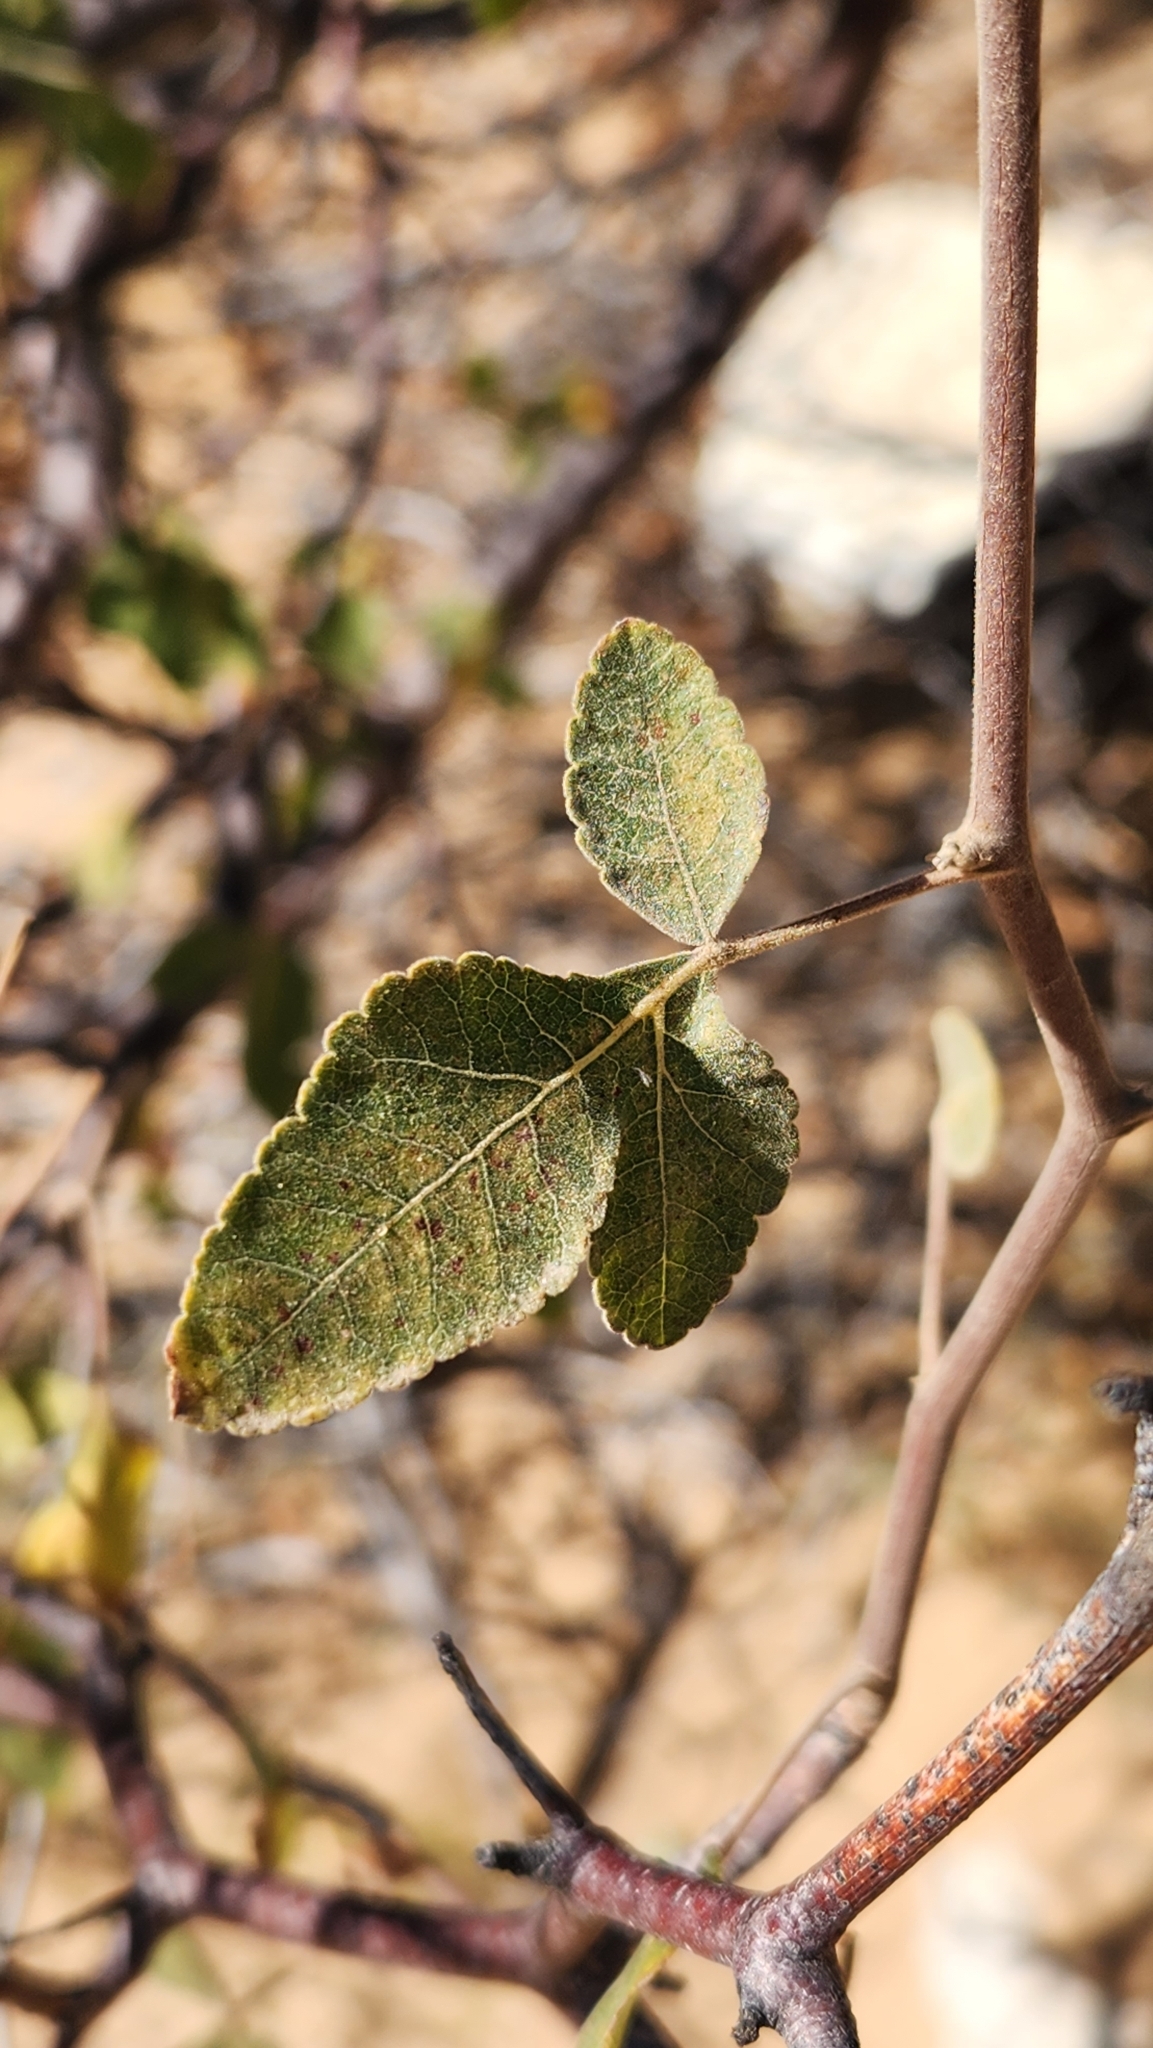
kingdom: Plantae
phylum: Tracheophyta
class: Magnoliopsida
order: Sapindales
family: Burseraceae
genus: Bursera
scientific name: Bursera hindsiana
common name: Red elephant tree
